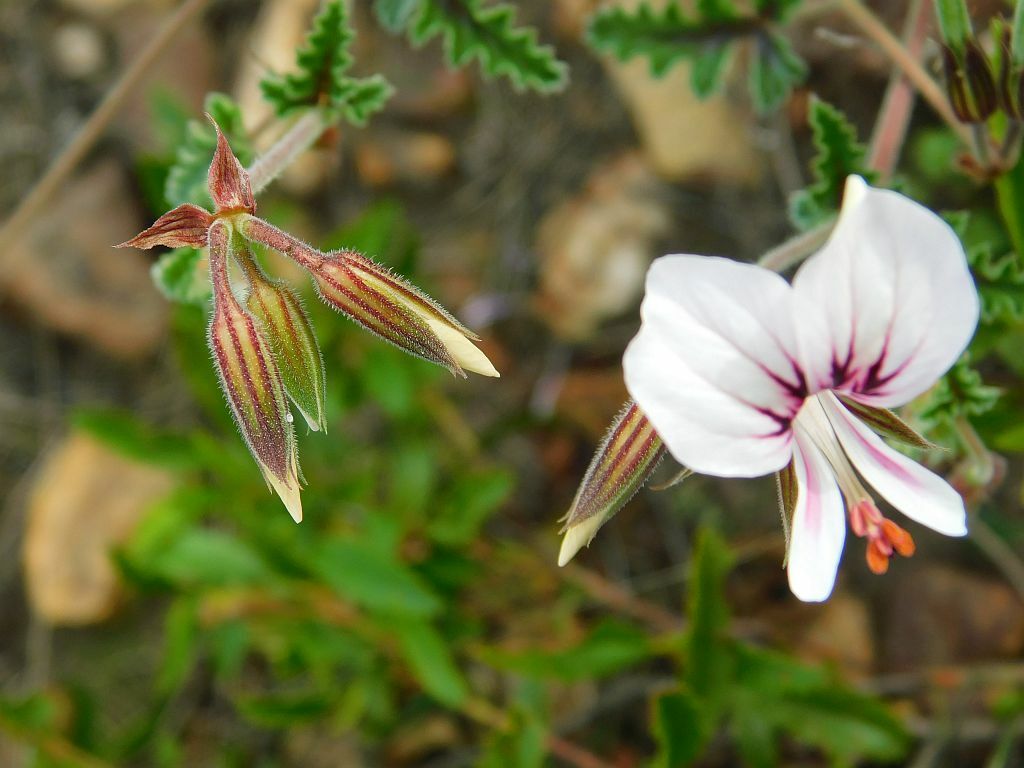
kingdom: Plantae
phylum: Tracheophyta
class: Magnoliopsida
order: Geraniales
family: Geraniaceae
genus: Pelargonium
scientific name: Pelargonium candicans
